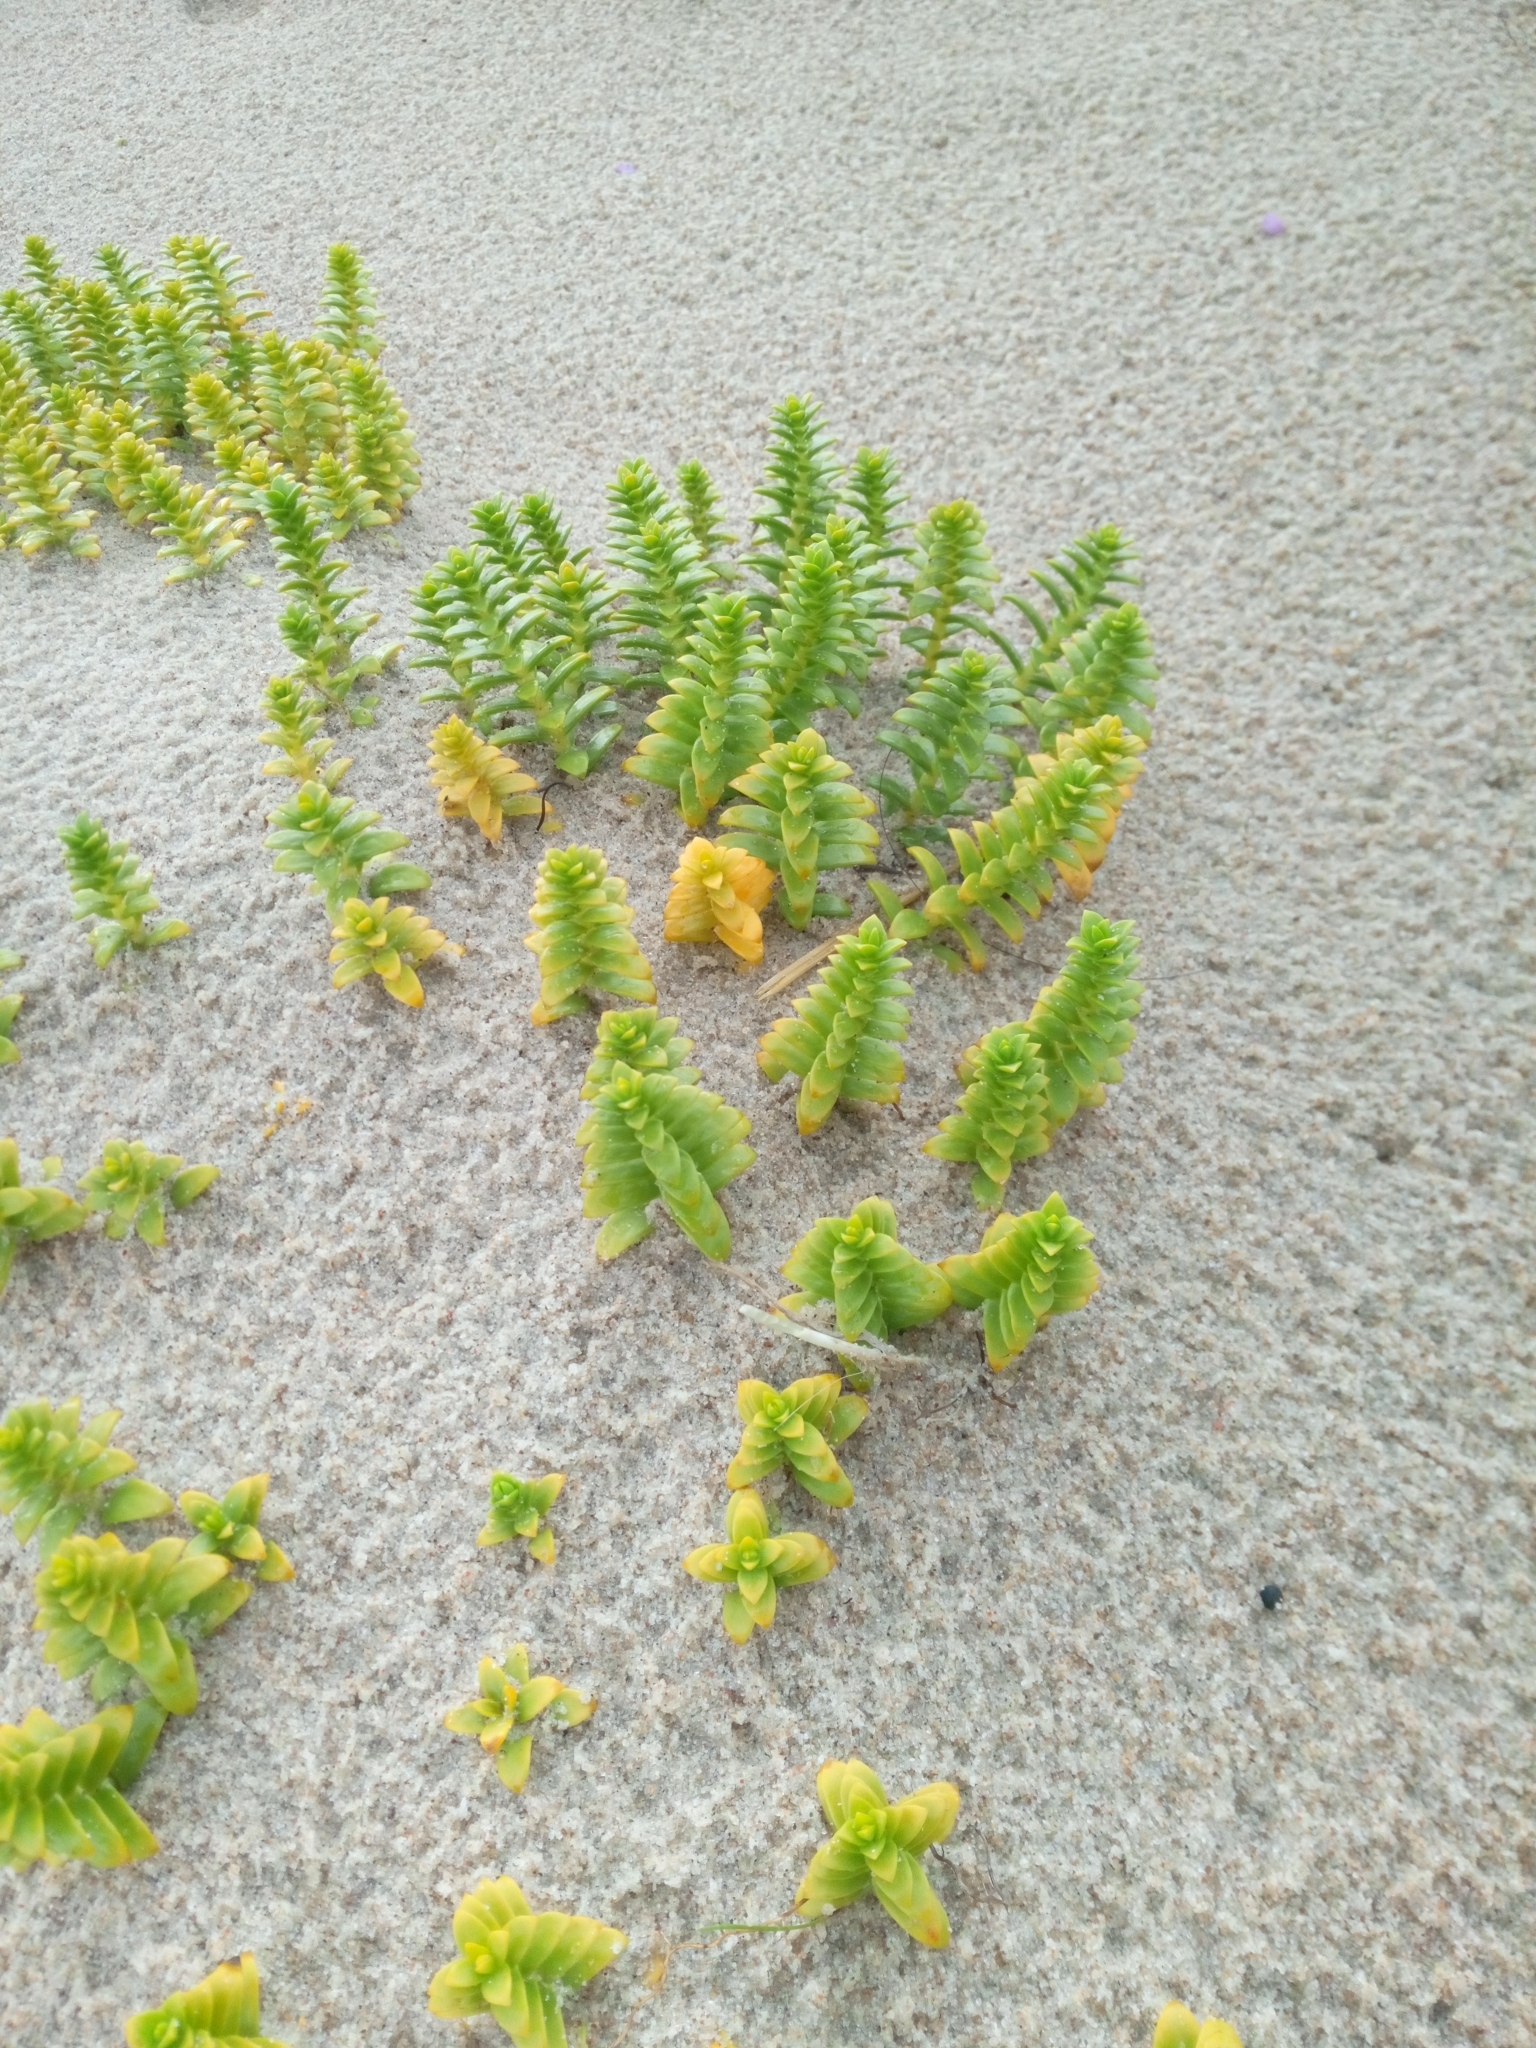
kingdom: Plantae
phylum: Tracheophyta
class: Magnoliopsida
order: Caryophyllales
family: Caryophyllaceae
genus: Honckenya
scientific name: Honckenya peploides
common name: Sea sandwort
